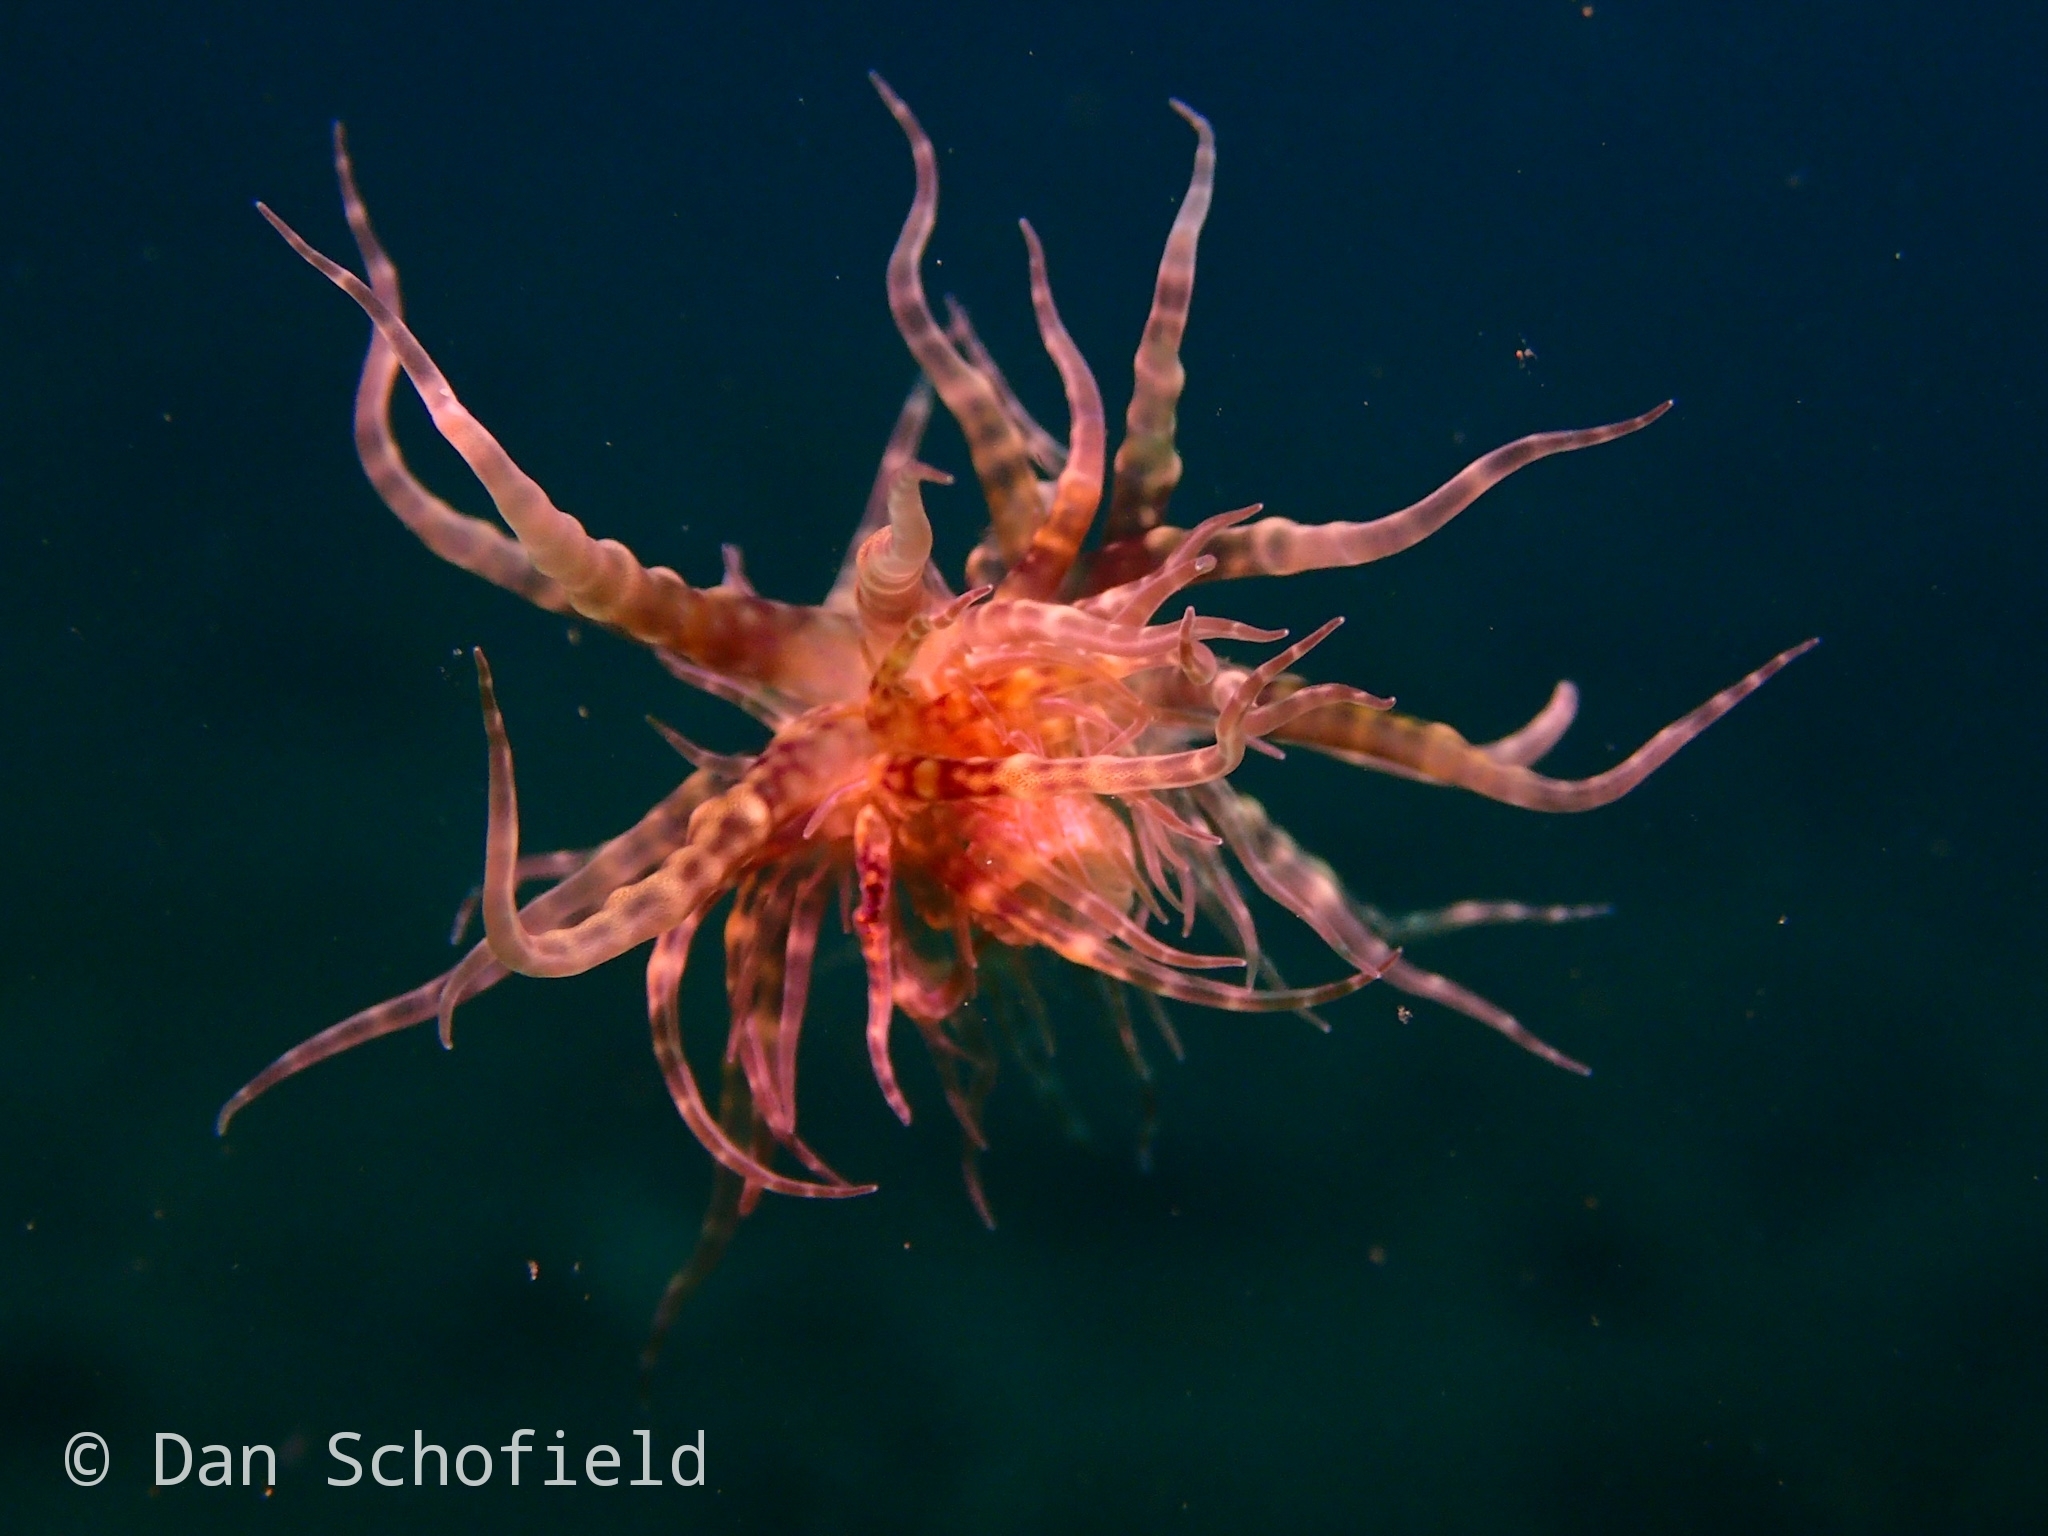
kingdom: Animalia
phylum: Cnidaria
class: Anthozoa
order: Actiniaria
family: Boloceroididae
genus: Boloceroides
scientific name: Boloceroides mcmurrichi
